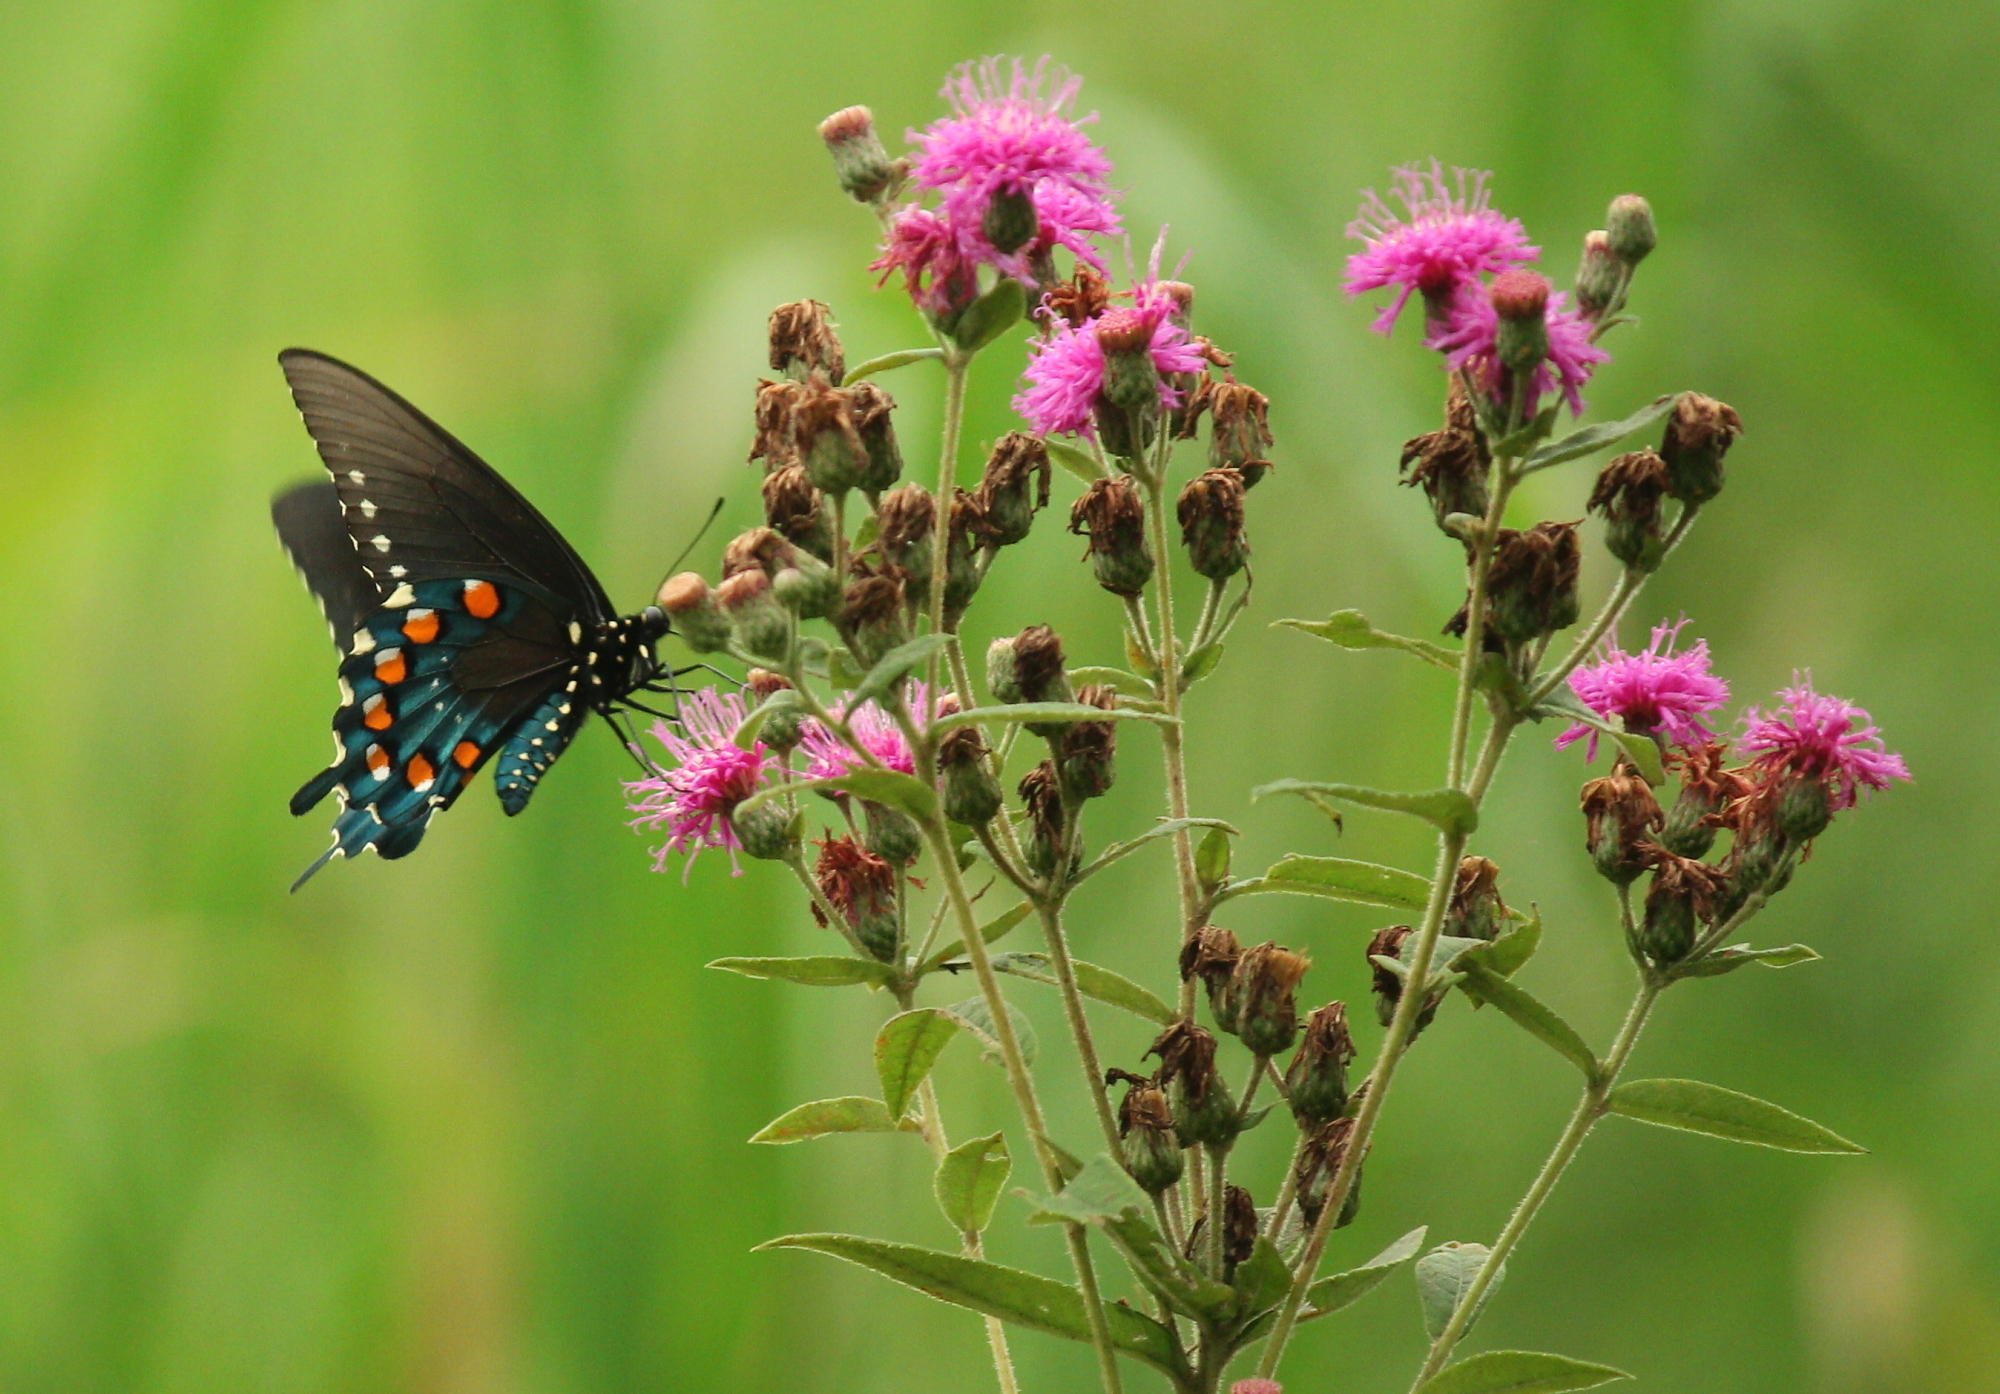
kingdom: Animalia
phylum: Arthropoda
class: Insecta
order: Lepidoptera
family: Papilionidae
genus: Battus
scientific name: Battus philenor
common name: Pipevine swallowtail
